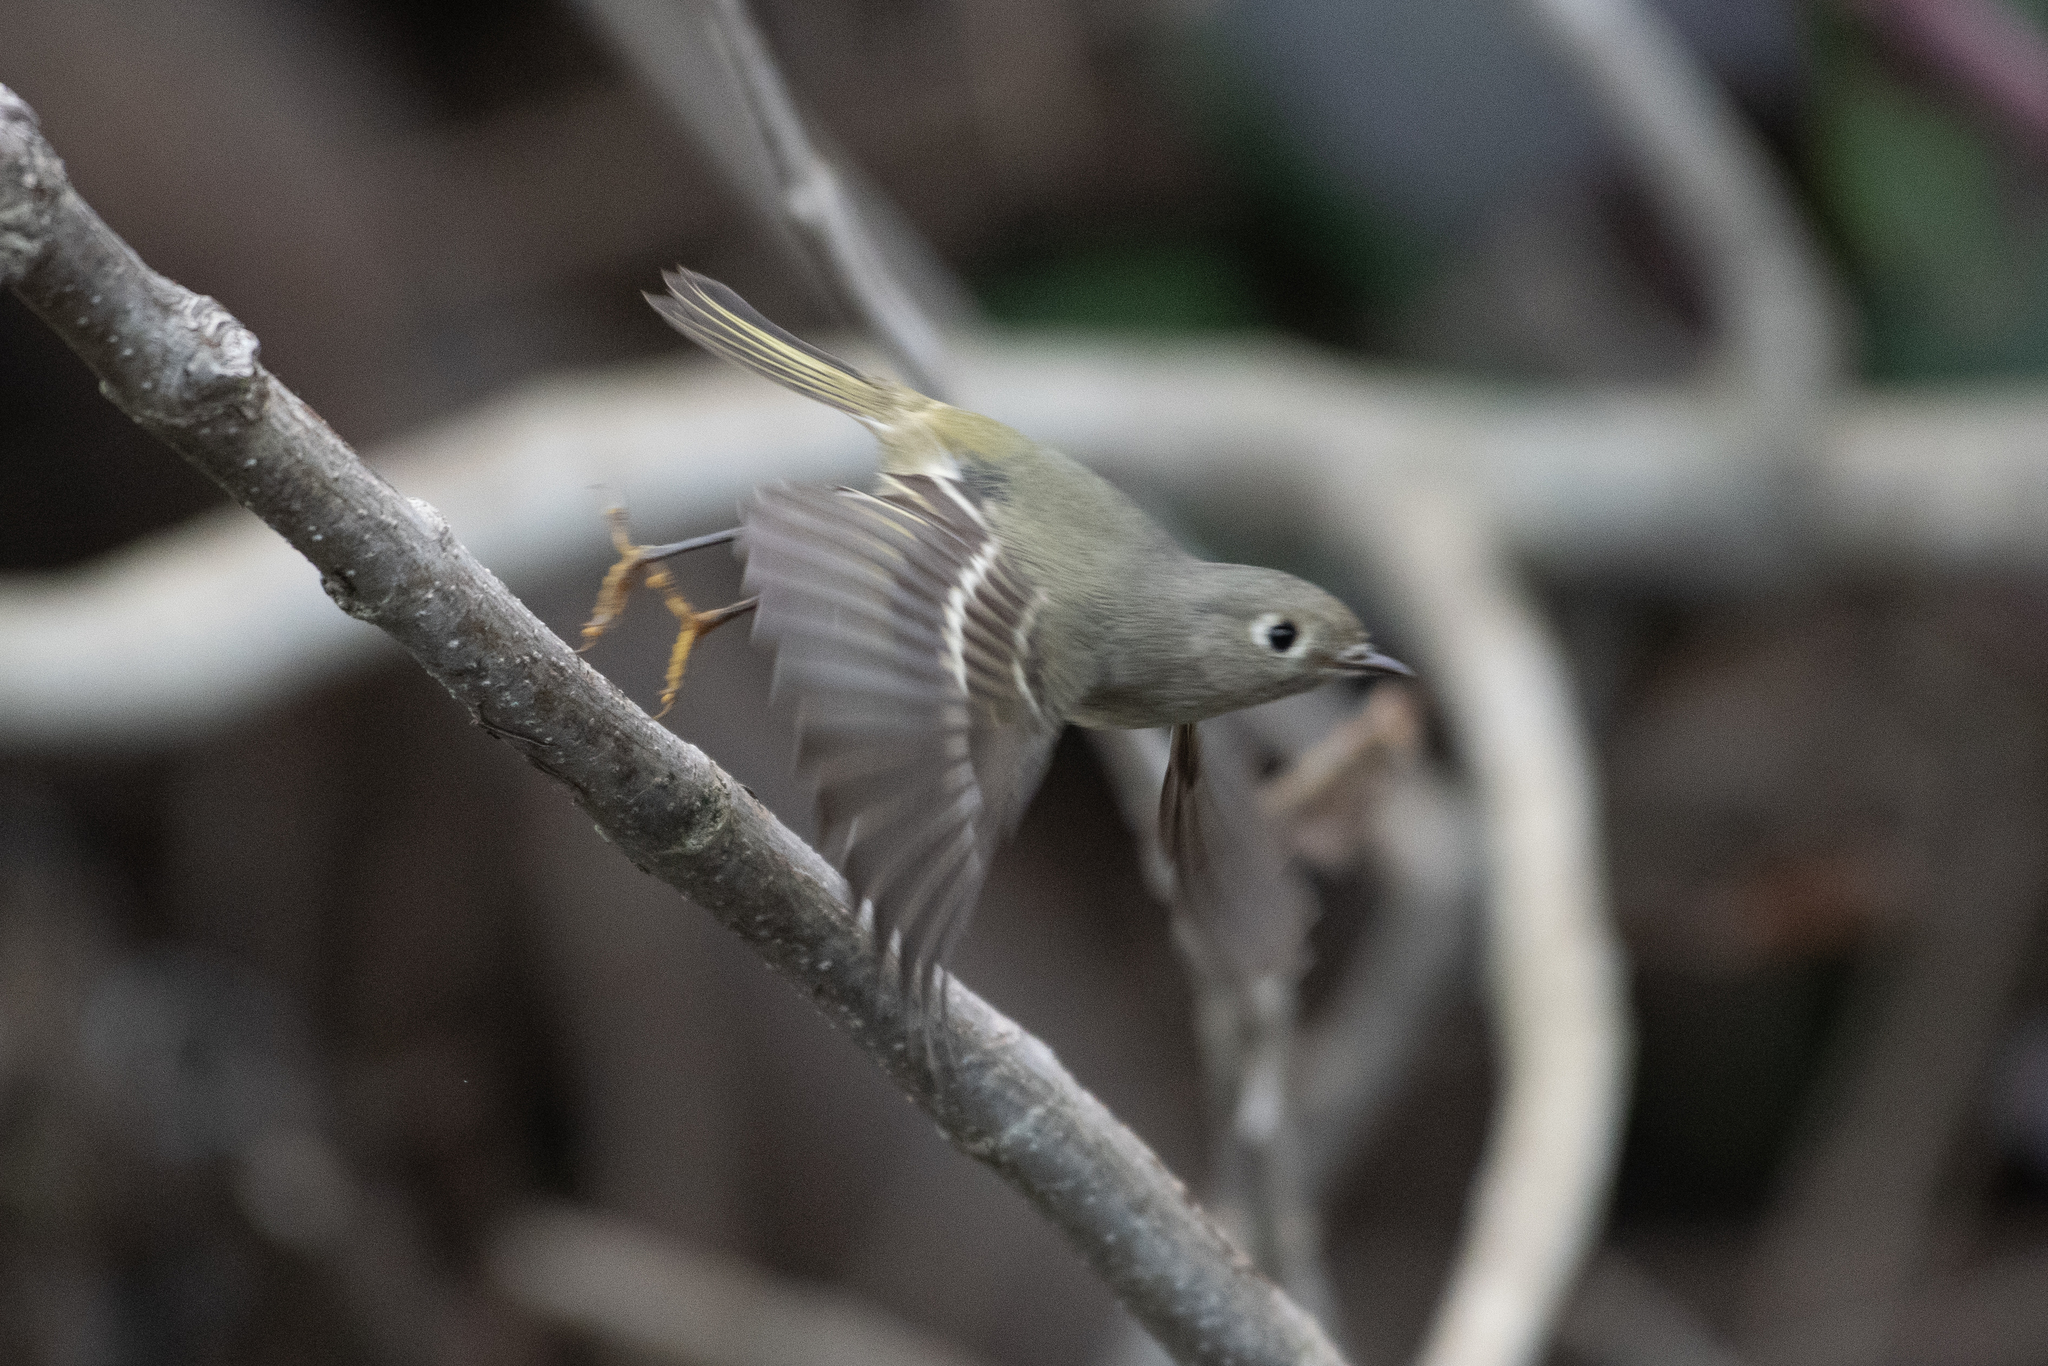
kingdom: Animalia
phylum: Chordata
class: Aves
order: Passeriformes
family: Regulidae
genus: Regulus
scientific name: Regulus calendula
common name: Ruby-crowned kinglet
